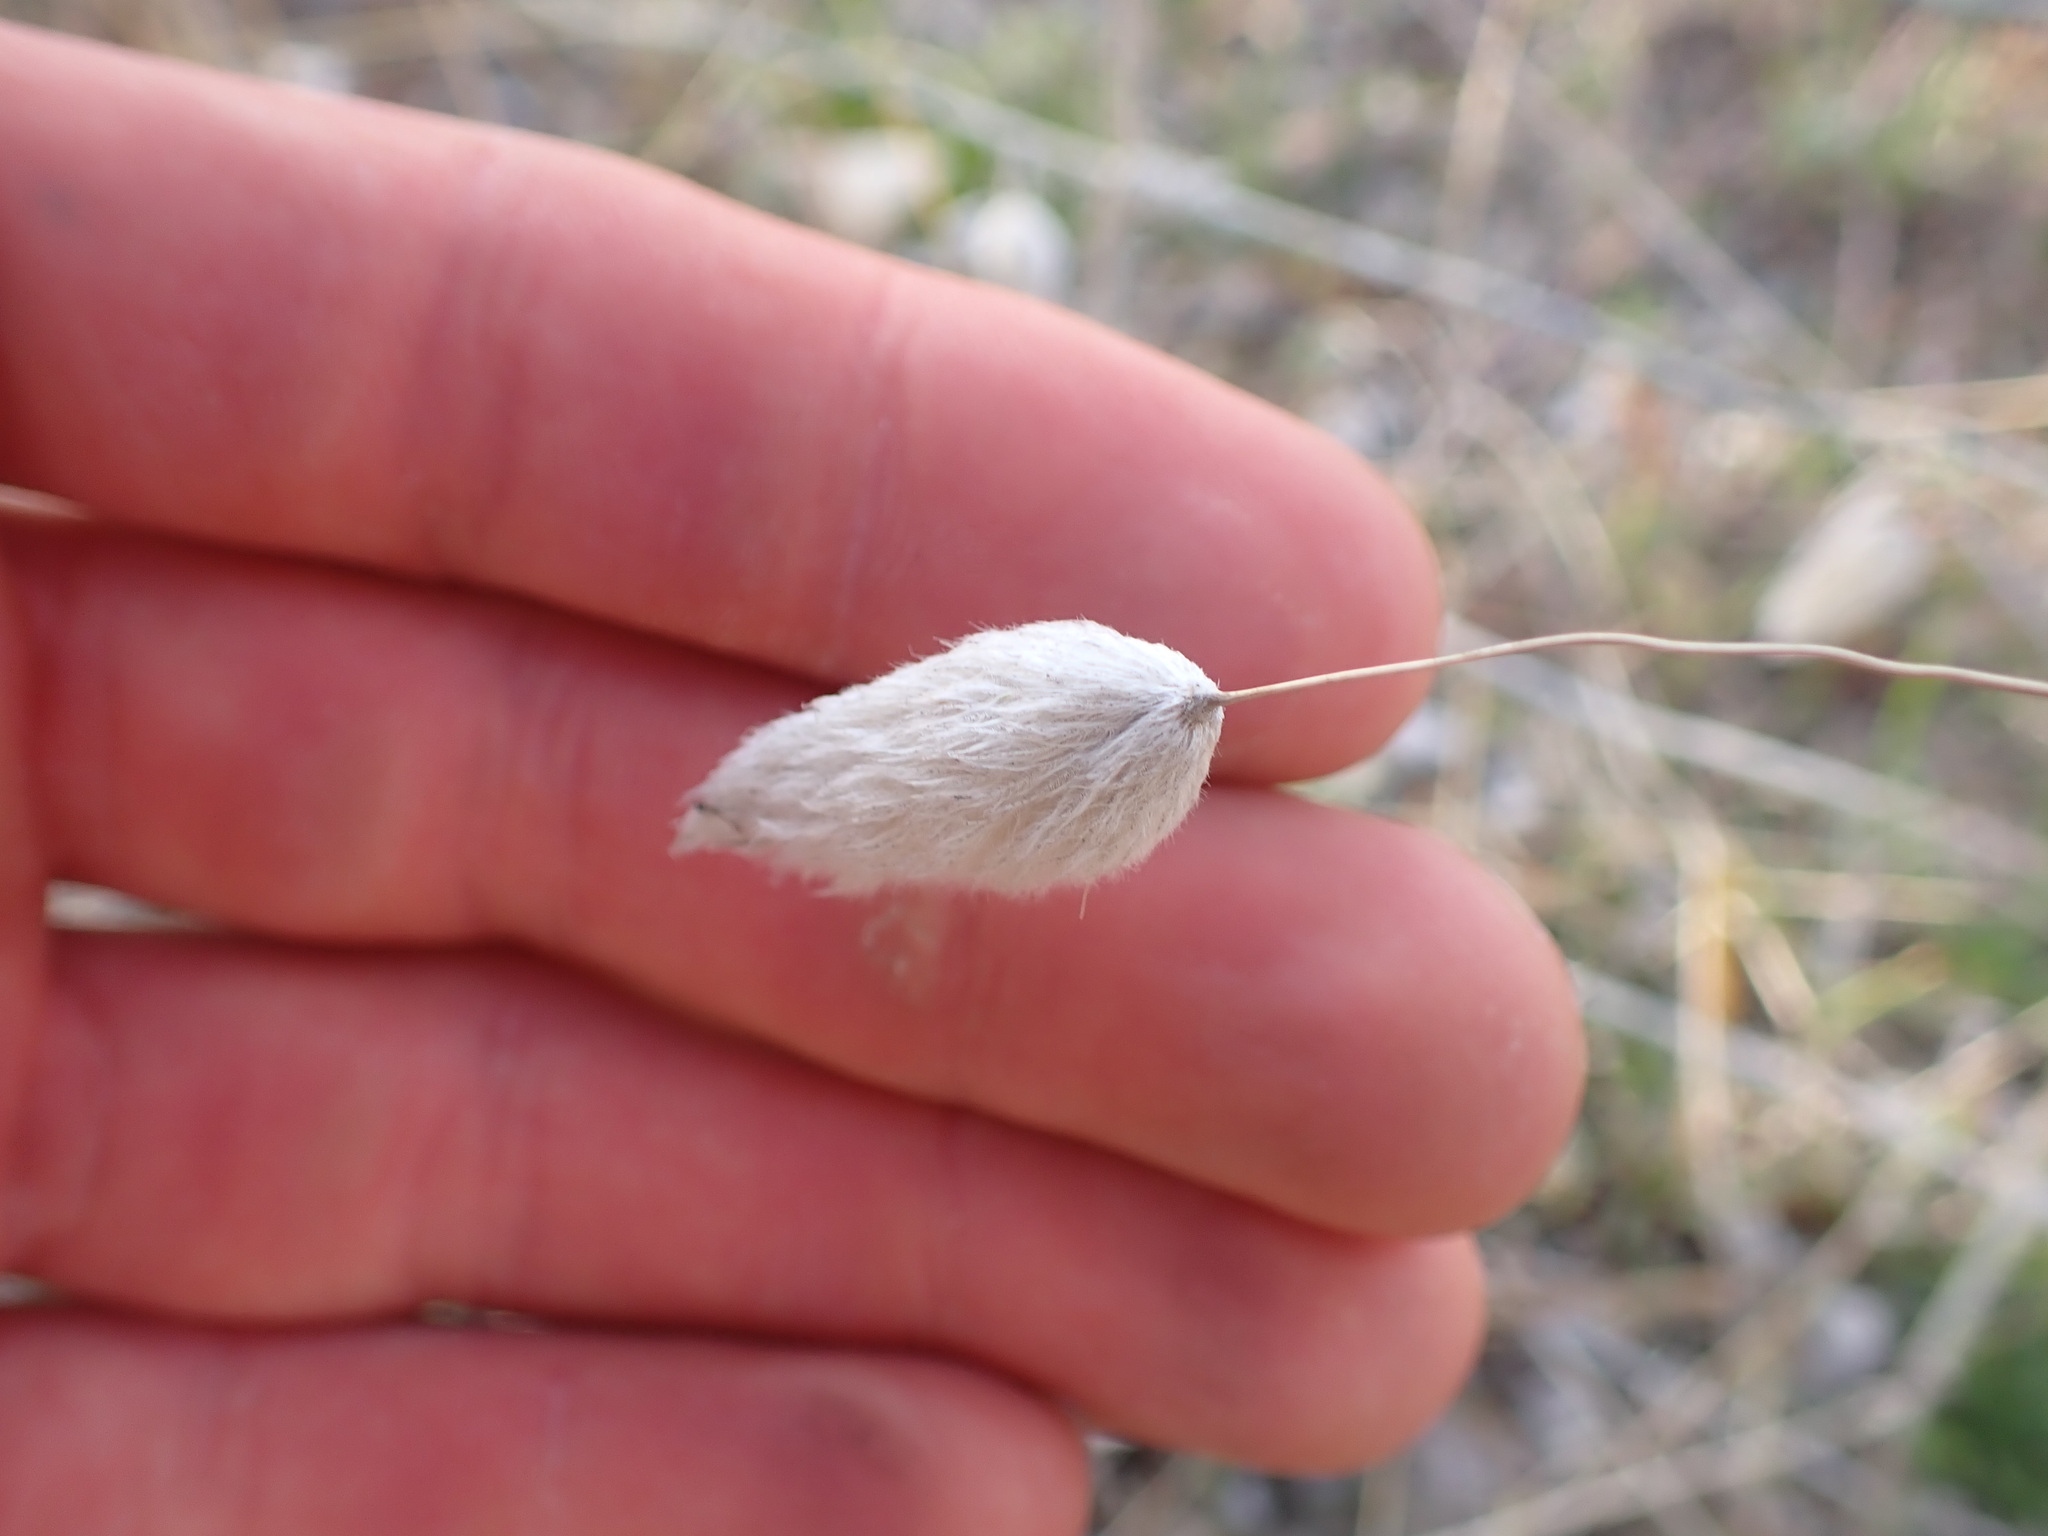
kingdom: Plantae
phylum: Tracheophyta
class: Liliopsida
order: Poales
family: Poaceae
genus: Lagurus
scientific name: Lagurus ovatus
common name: Hare's-tail
